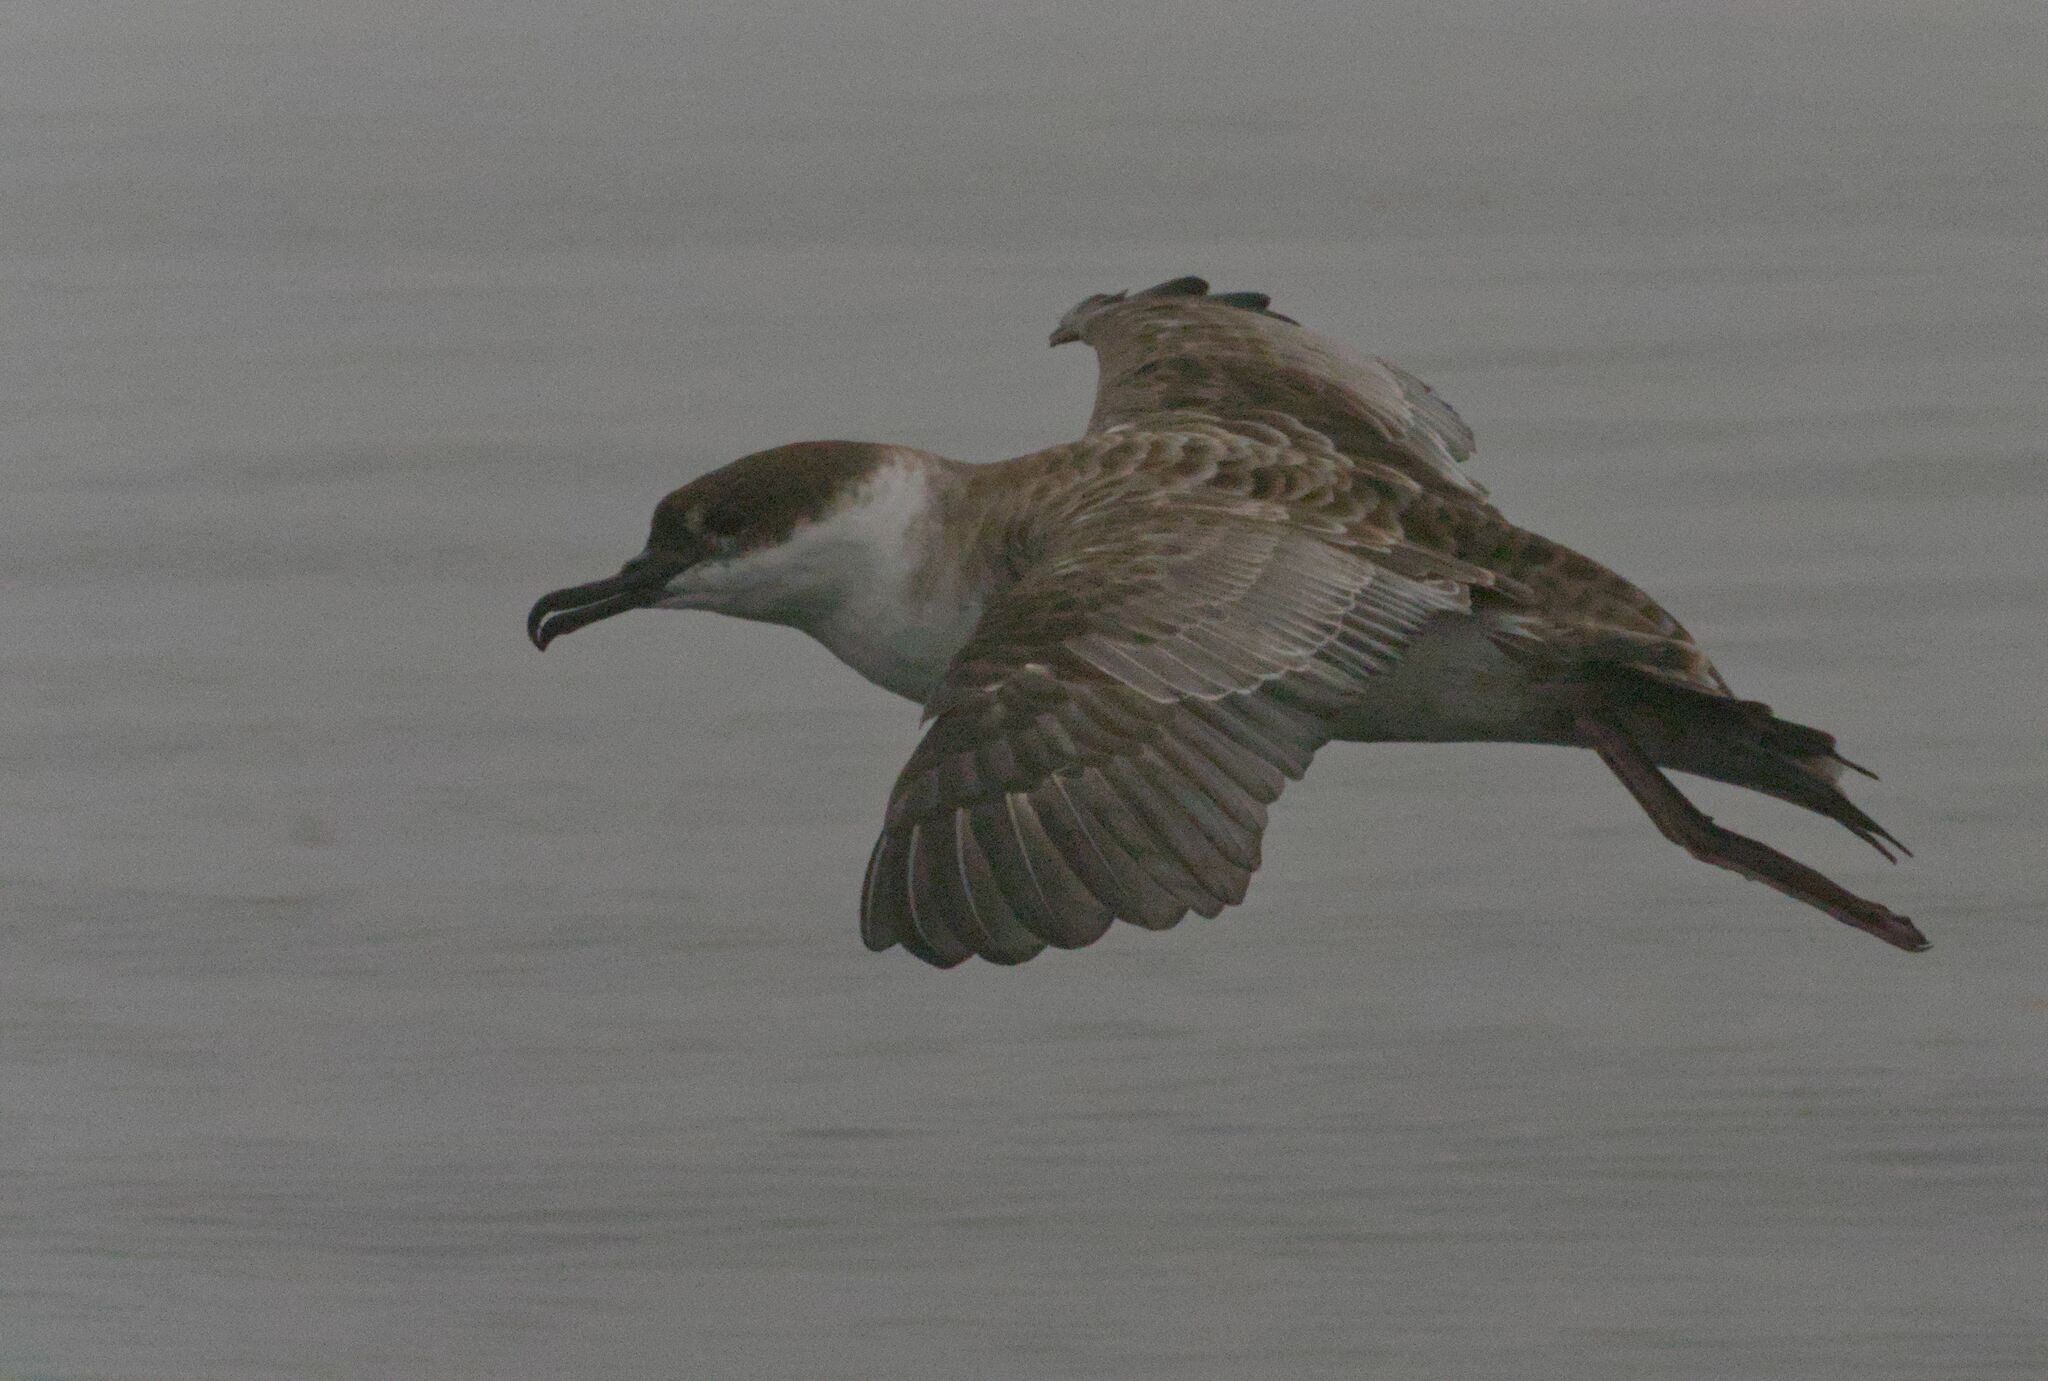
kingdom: Animalia
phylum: Chordata
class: Aves
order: Procellariiformes
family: Procellariidae
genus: Puffinus
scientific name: Puffinus gravis
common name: Great shearwater
